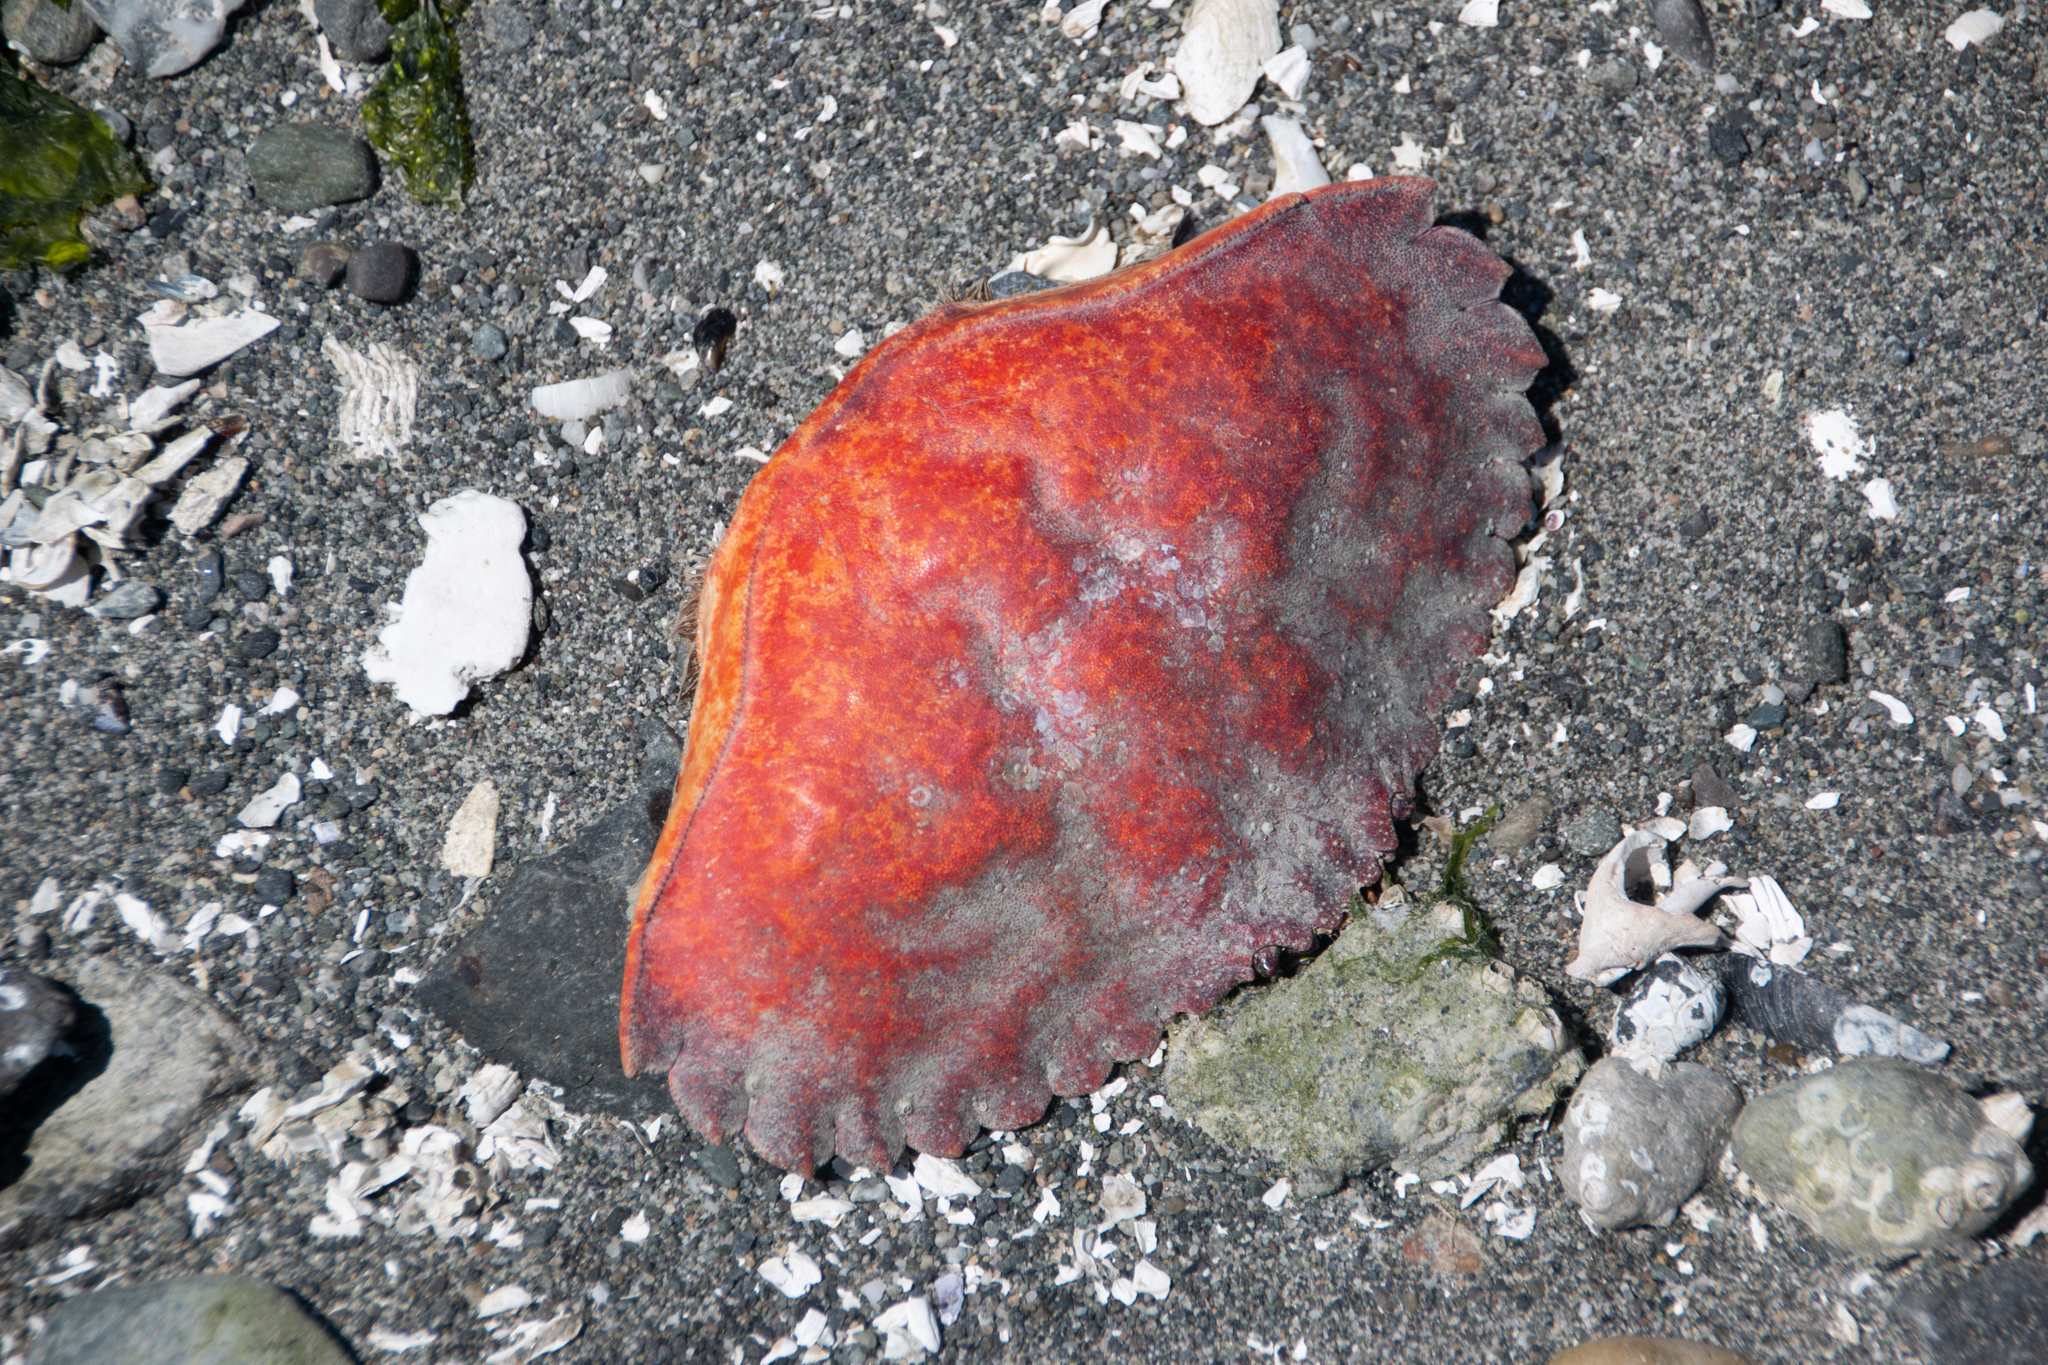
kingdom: Animalia
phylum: Arthropoda
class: Malacostraca
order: Decapoda
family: Cancridae
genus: Cancer
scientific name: Cancer productus
